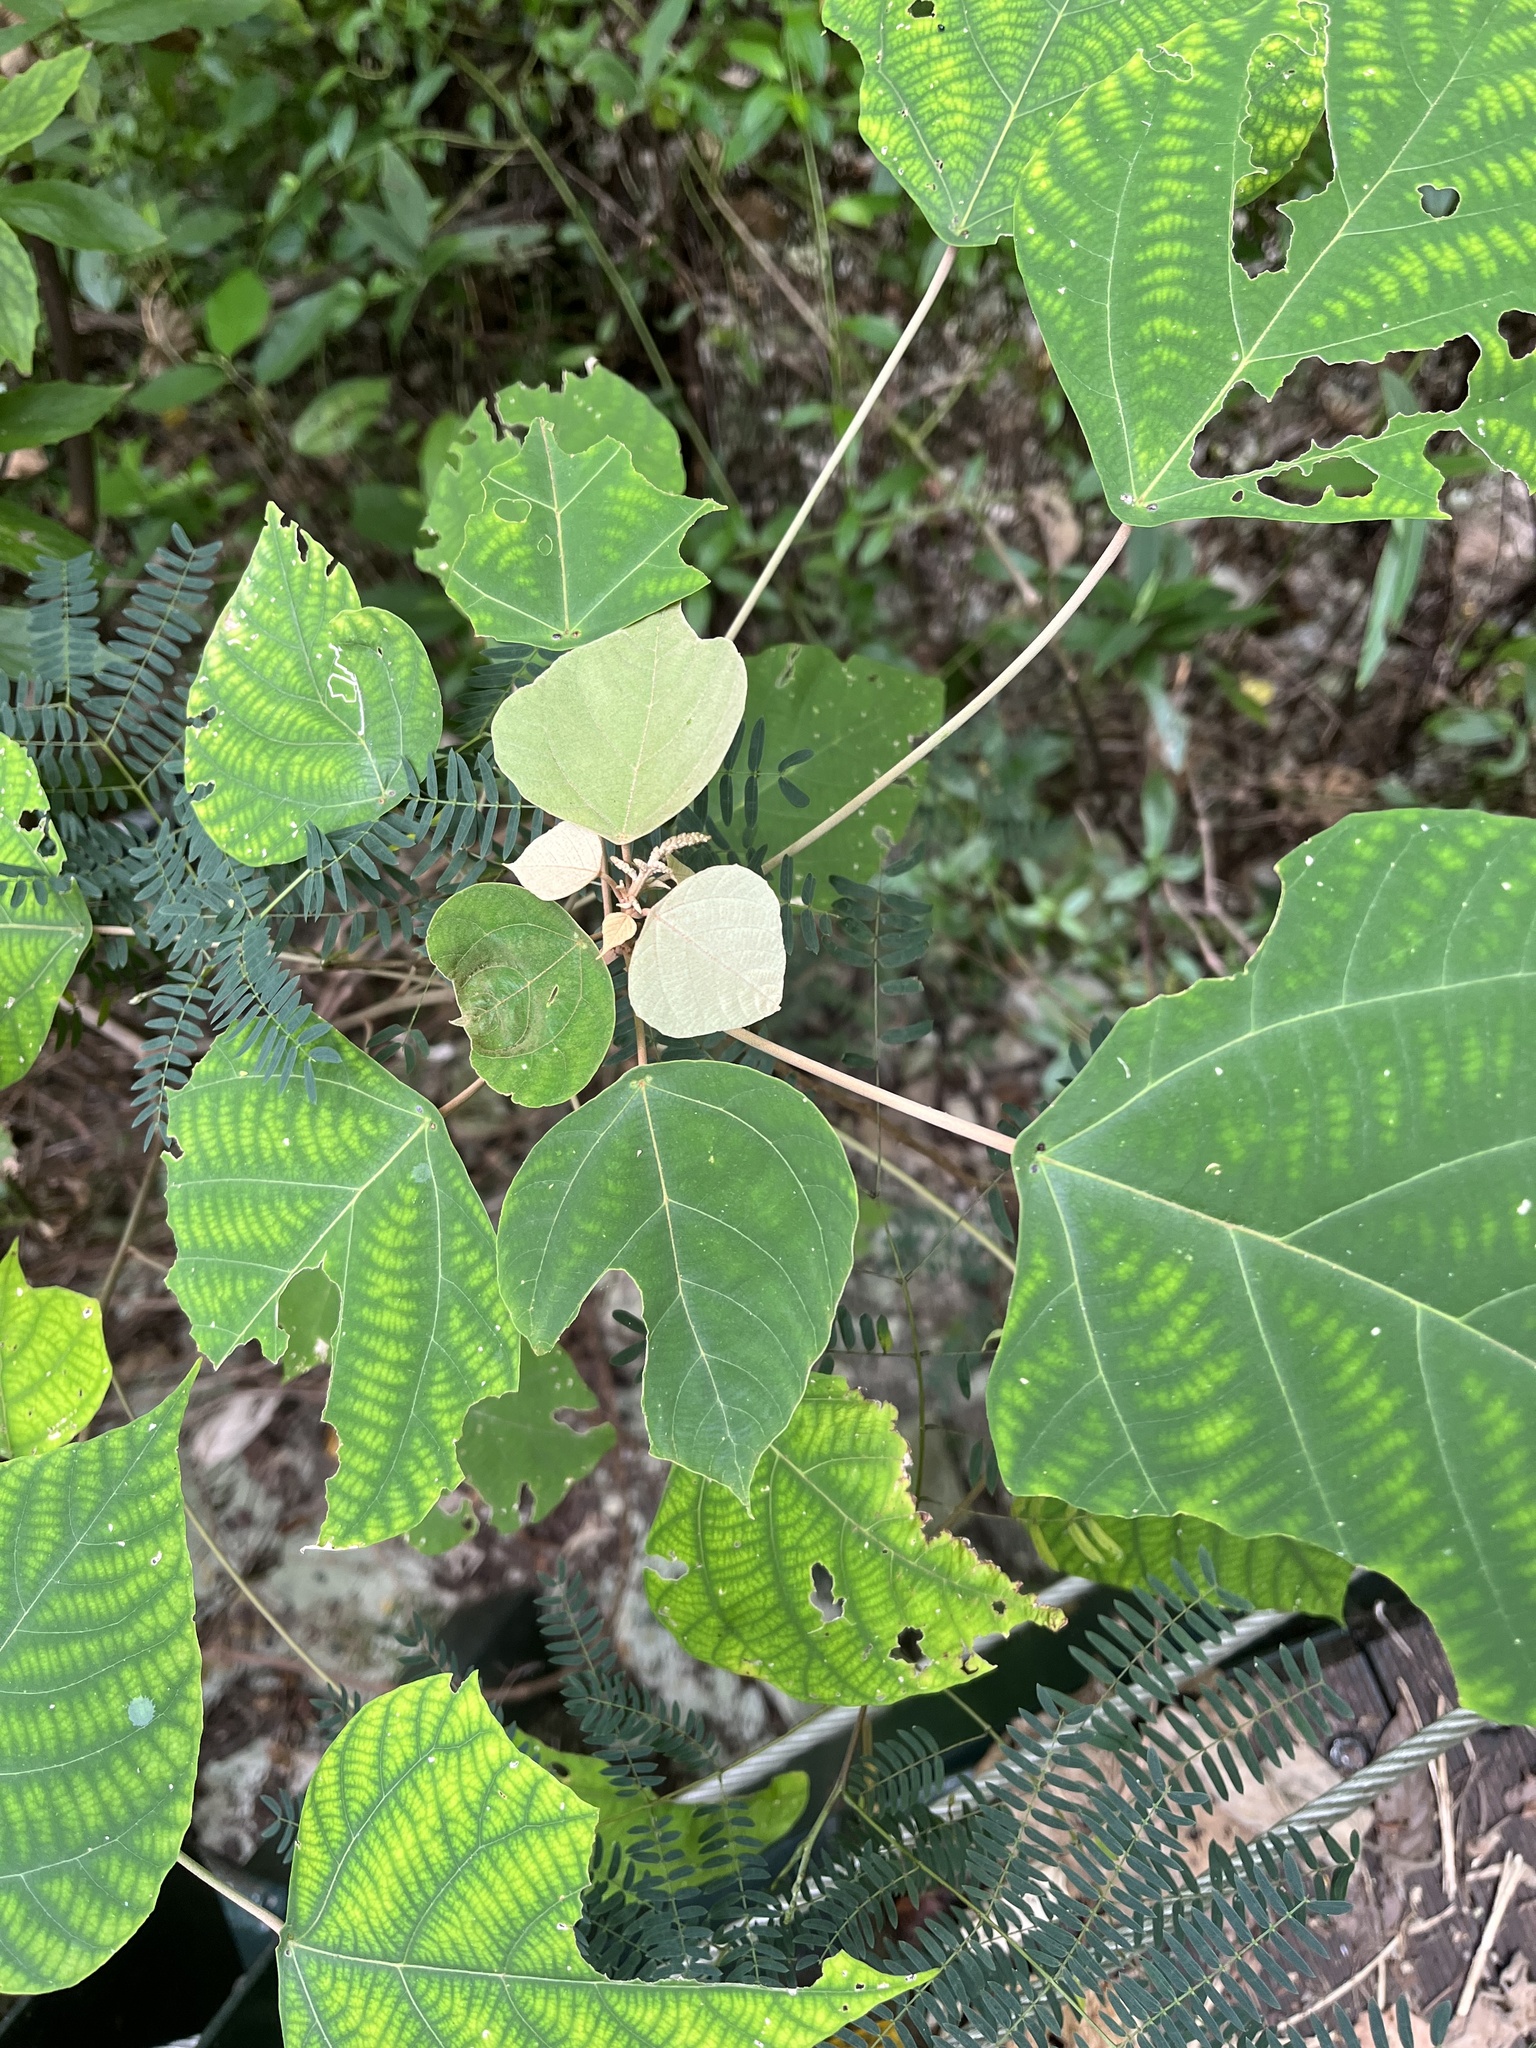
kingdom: Plantae
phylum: Tracheophyta
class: Magnoliopsida
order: Malpighiales
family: Euphorbiaceae
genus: Mallotus
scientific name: Mallotus paniculatus
